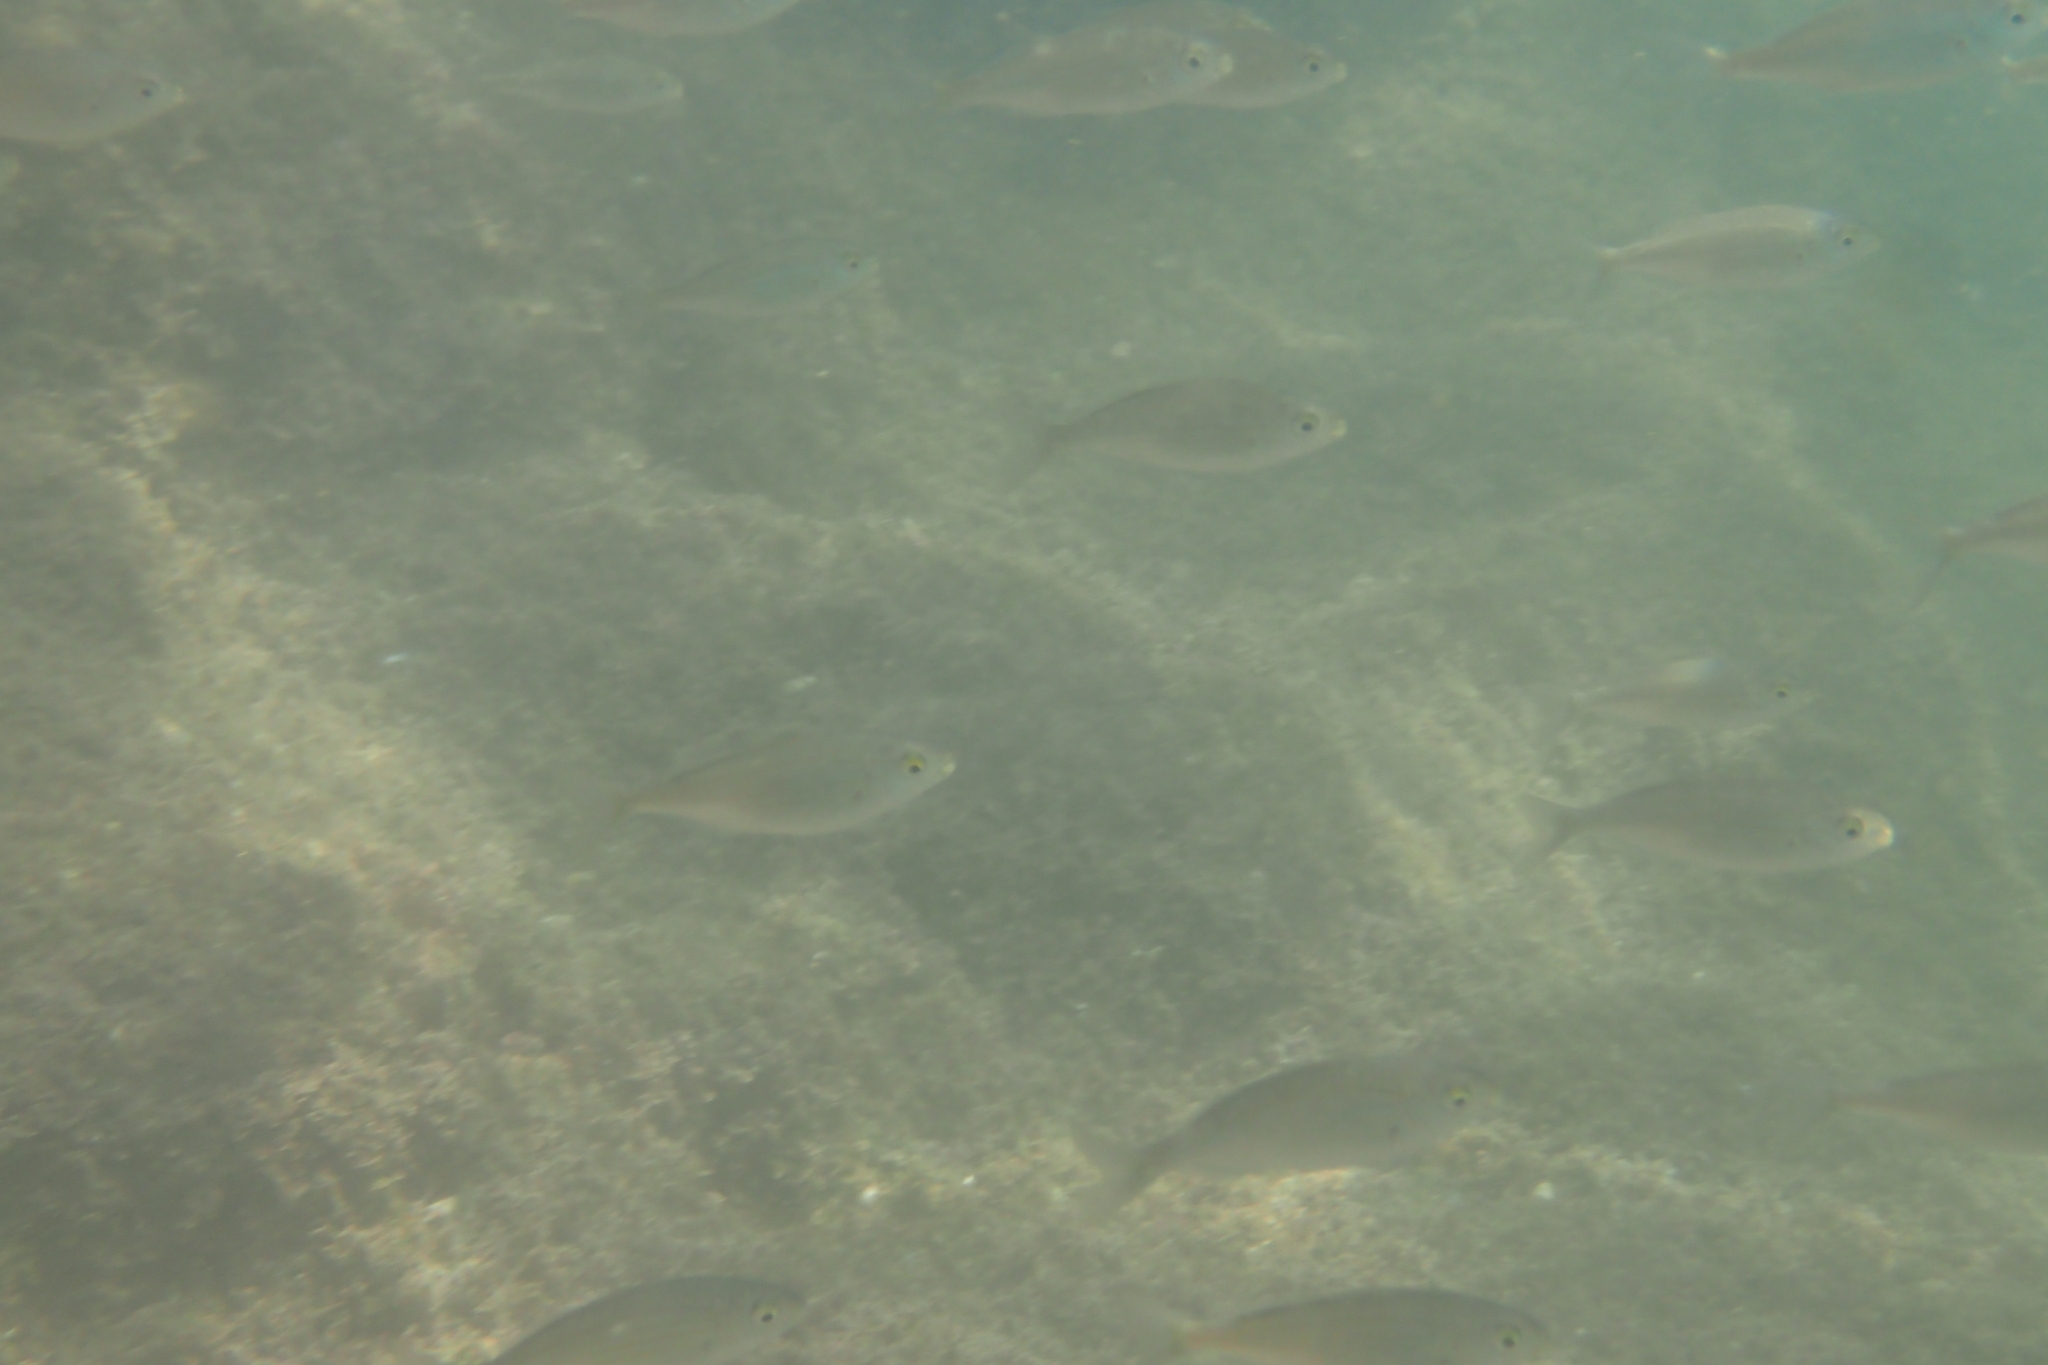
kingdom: Animalia
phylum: Chordata
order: Perciformes
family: Sparidae
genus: Sarpa
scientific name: Sarpa salpa
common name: Salema
